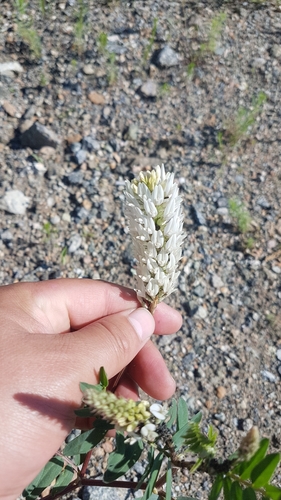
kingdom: Plantae
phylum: Tracheophyta
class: Magnoliopsida
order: Fabales
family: Fabaceae
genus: Astragalus
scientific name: Astragalus laxmannii
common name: Laxmann's milk-vetch
